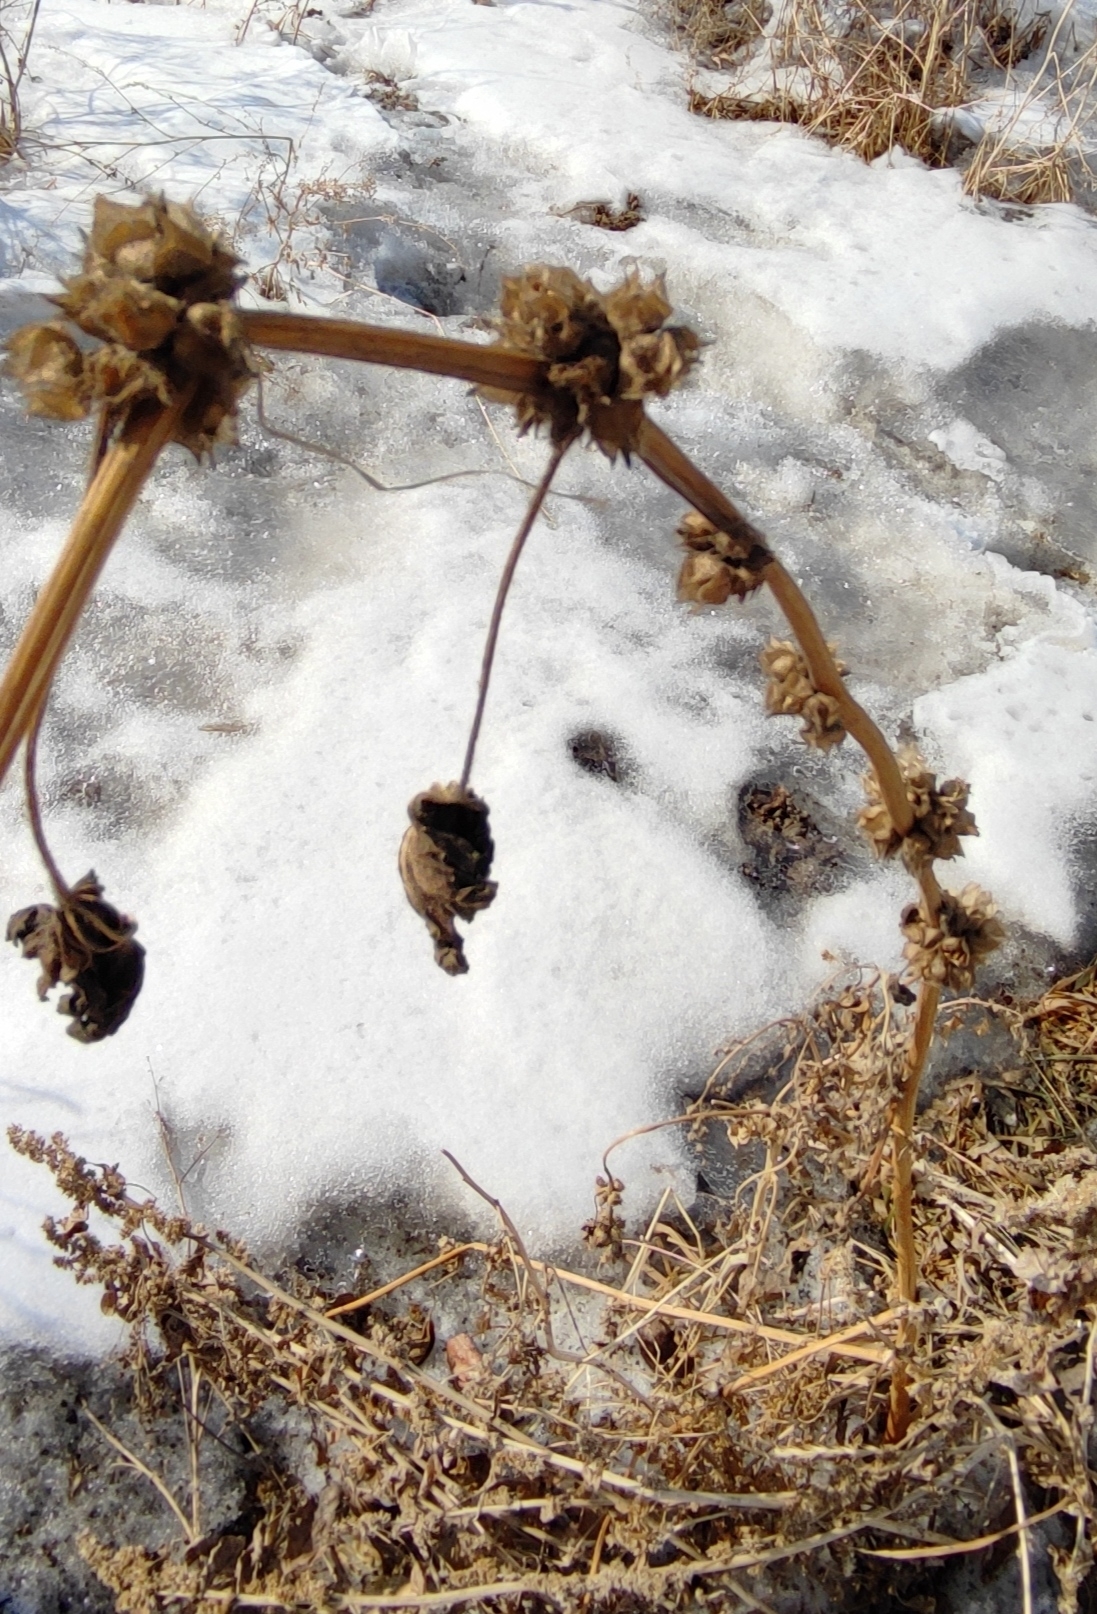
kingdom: Plantae
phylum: Tracheophyta
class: Magnoliopsida
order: Malvales
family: Malvaceae
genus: Malva
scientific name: Malva verticillata
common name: Chinese mallow
